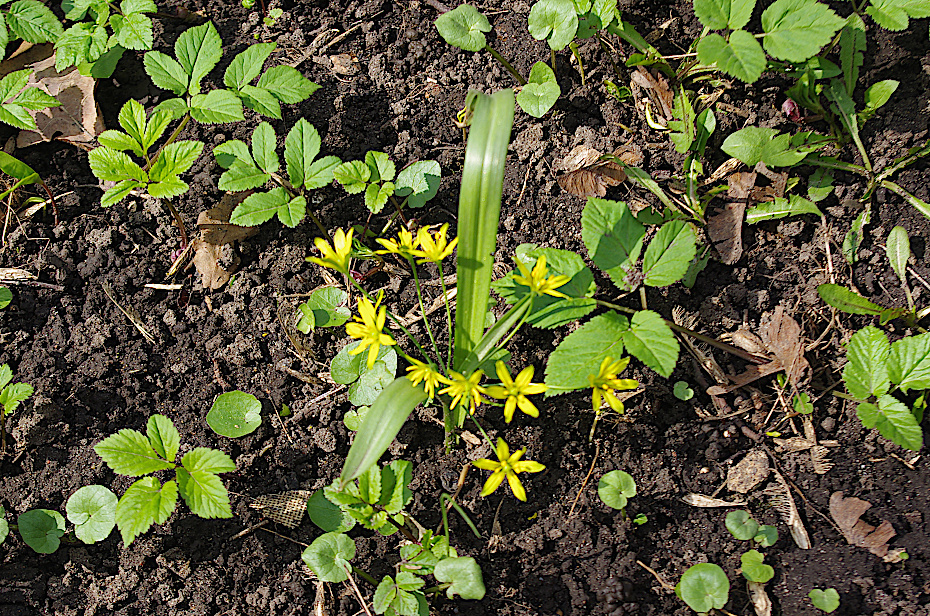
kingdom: Plantae
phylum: Tracheophyta
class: Liliopsida
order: Liliales
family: Liliaceae
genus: Gagea
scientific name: Gagea lutea
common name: Yellow star-of-bethlehem
